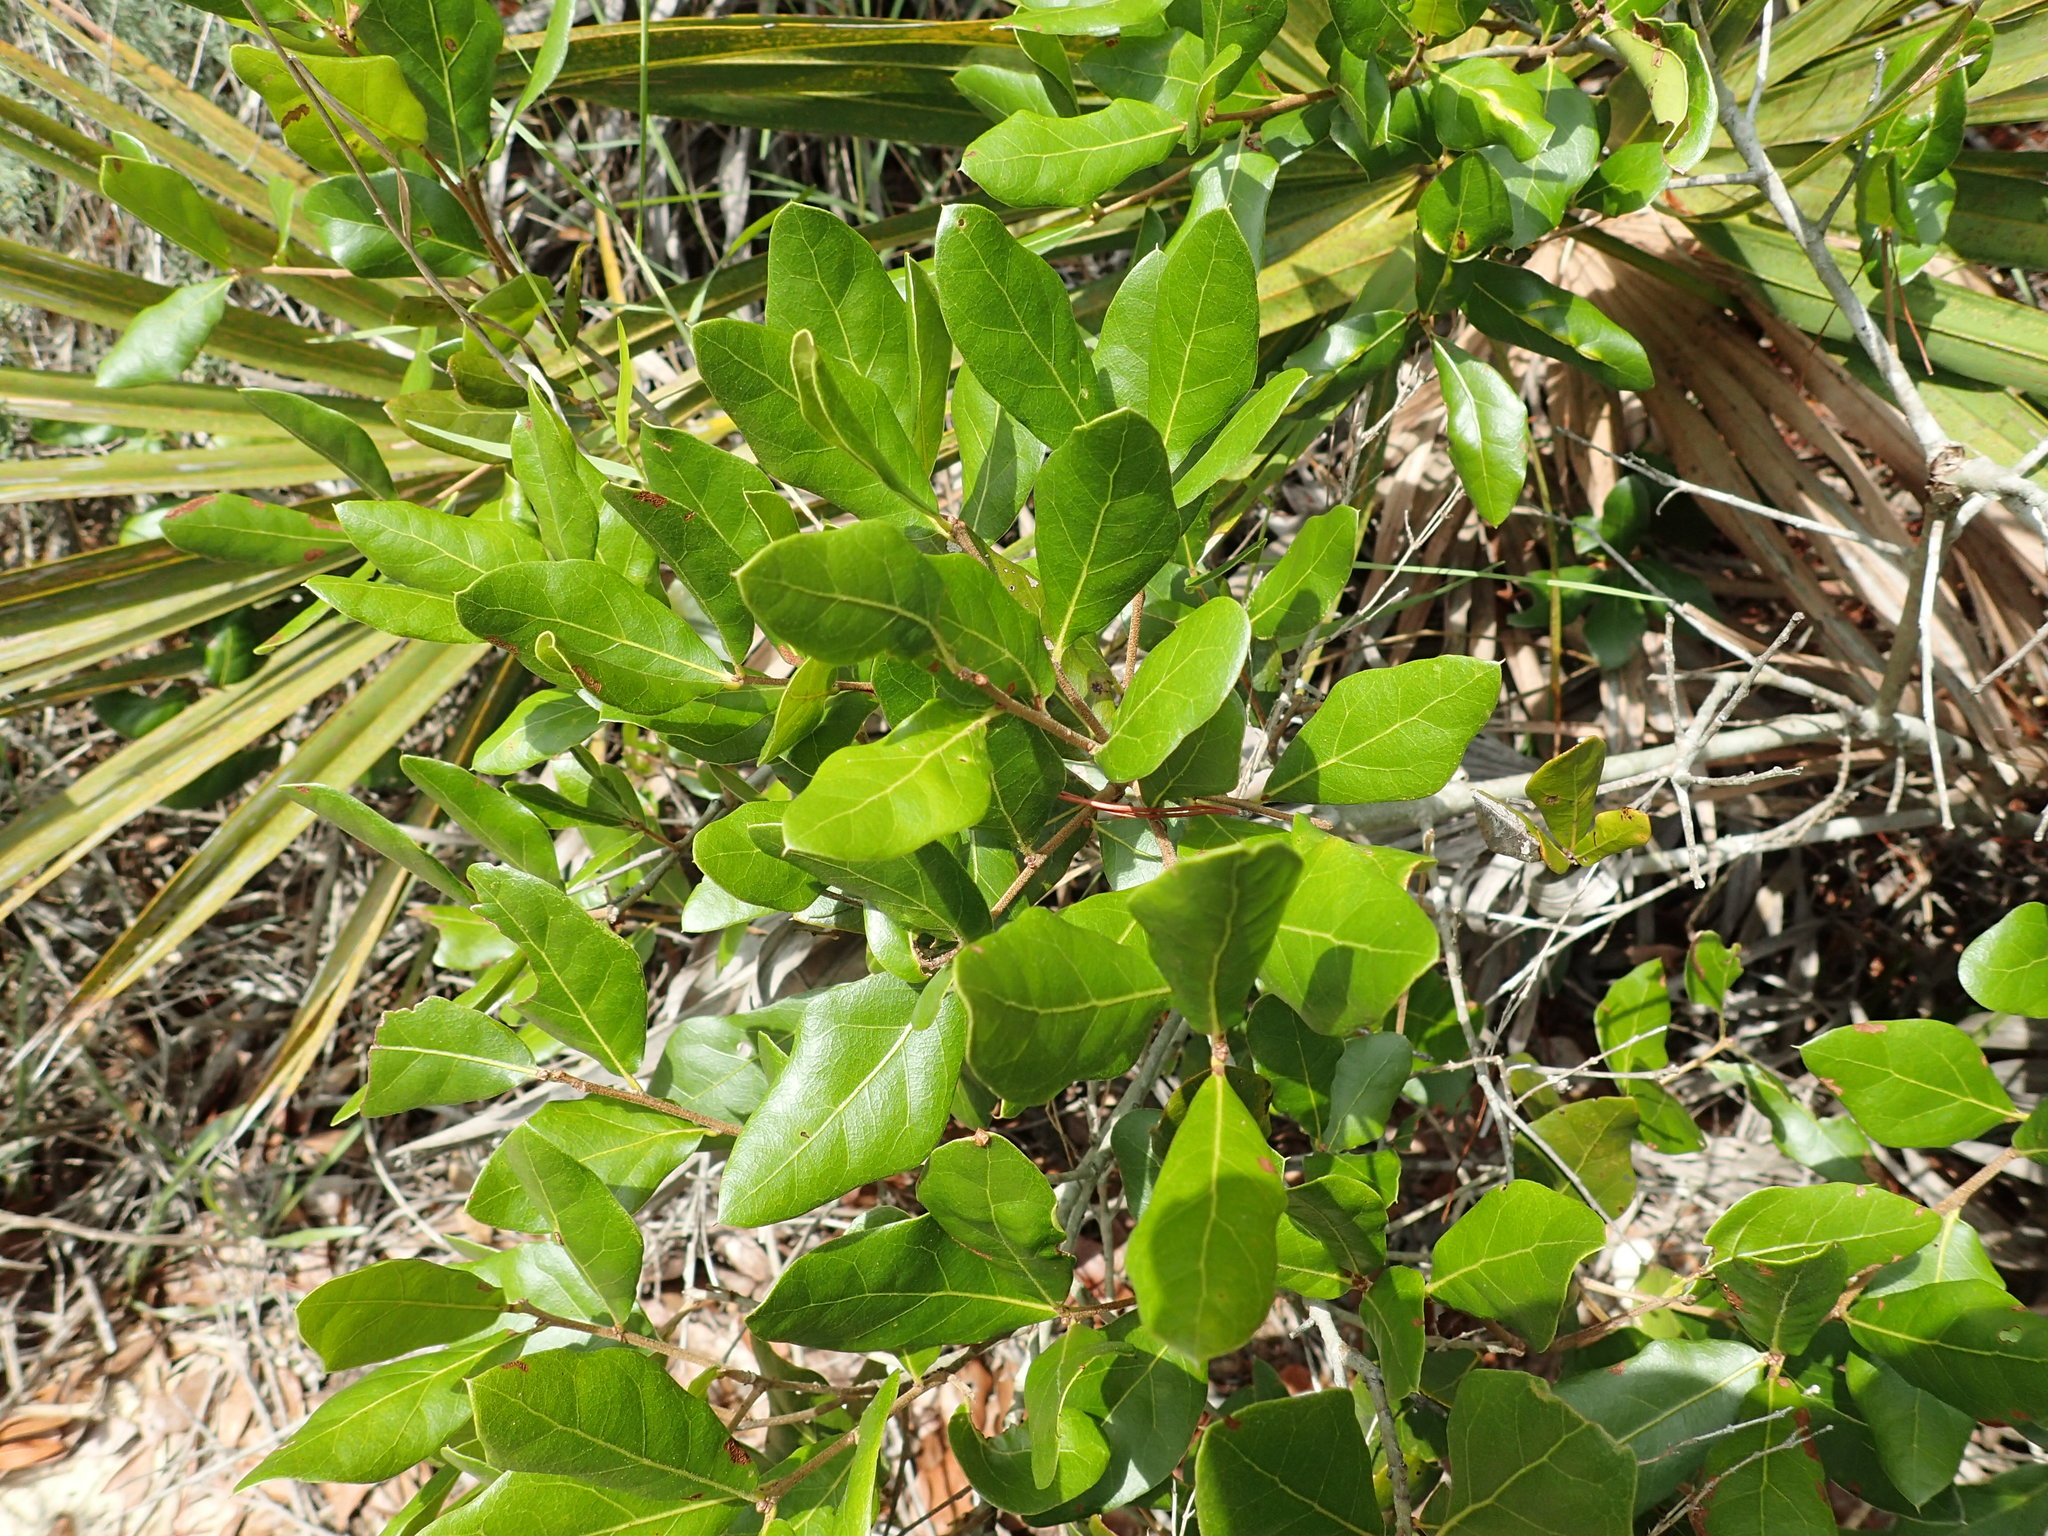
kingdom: Plantae
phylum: Tracheophyta
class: Magnoliopsida
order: Fagales
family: Fagaceae
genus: Quercus
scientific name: Quercus myrtifolia
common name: Myrtle oak
